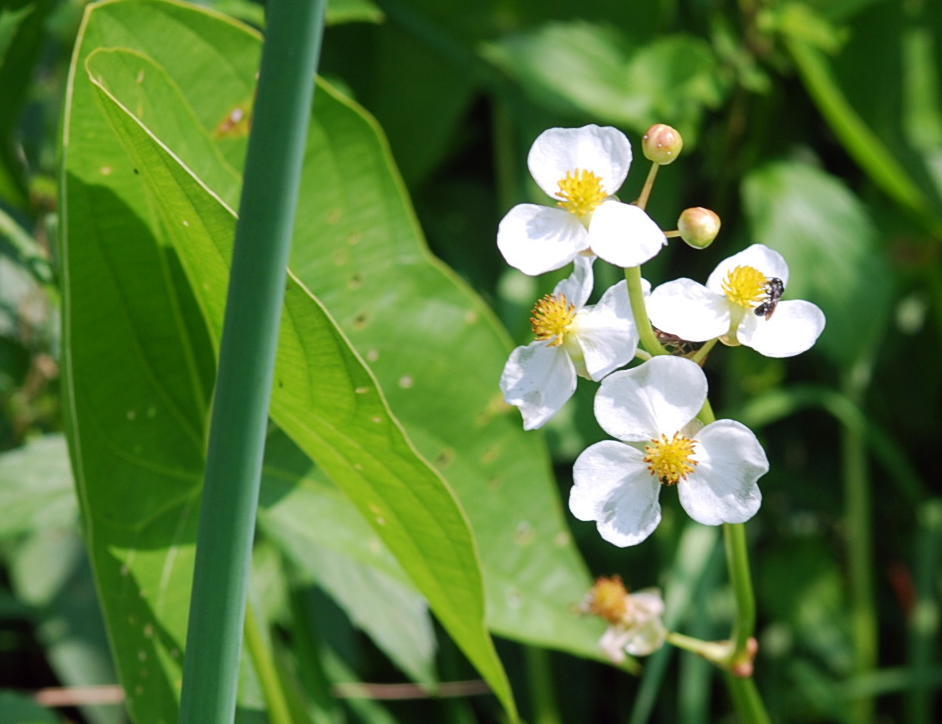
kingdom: Plantae
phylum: Tracheophyta
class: Liliopsida
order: Alismatales
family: Alismataceae
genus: Sagittaria
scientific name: Sagittaria latifolia
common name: Duck-potato
